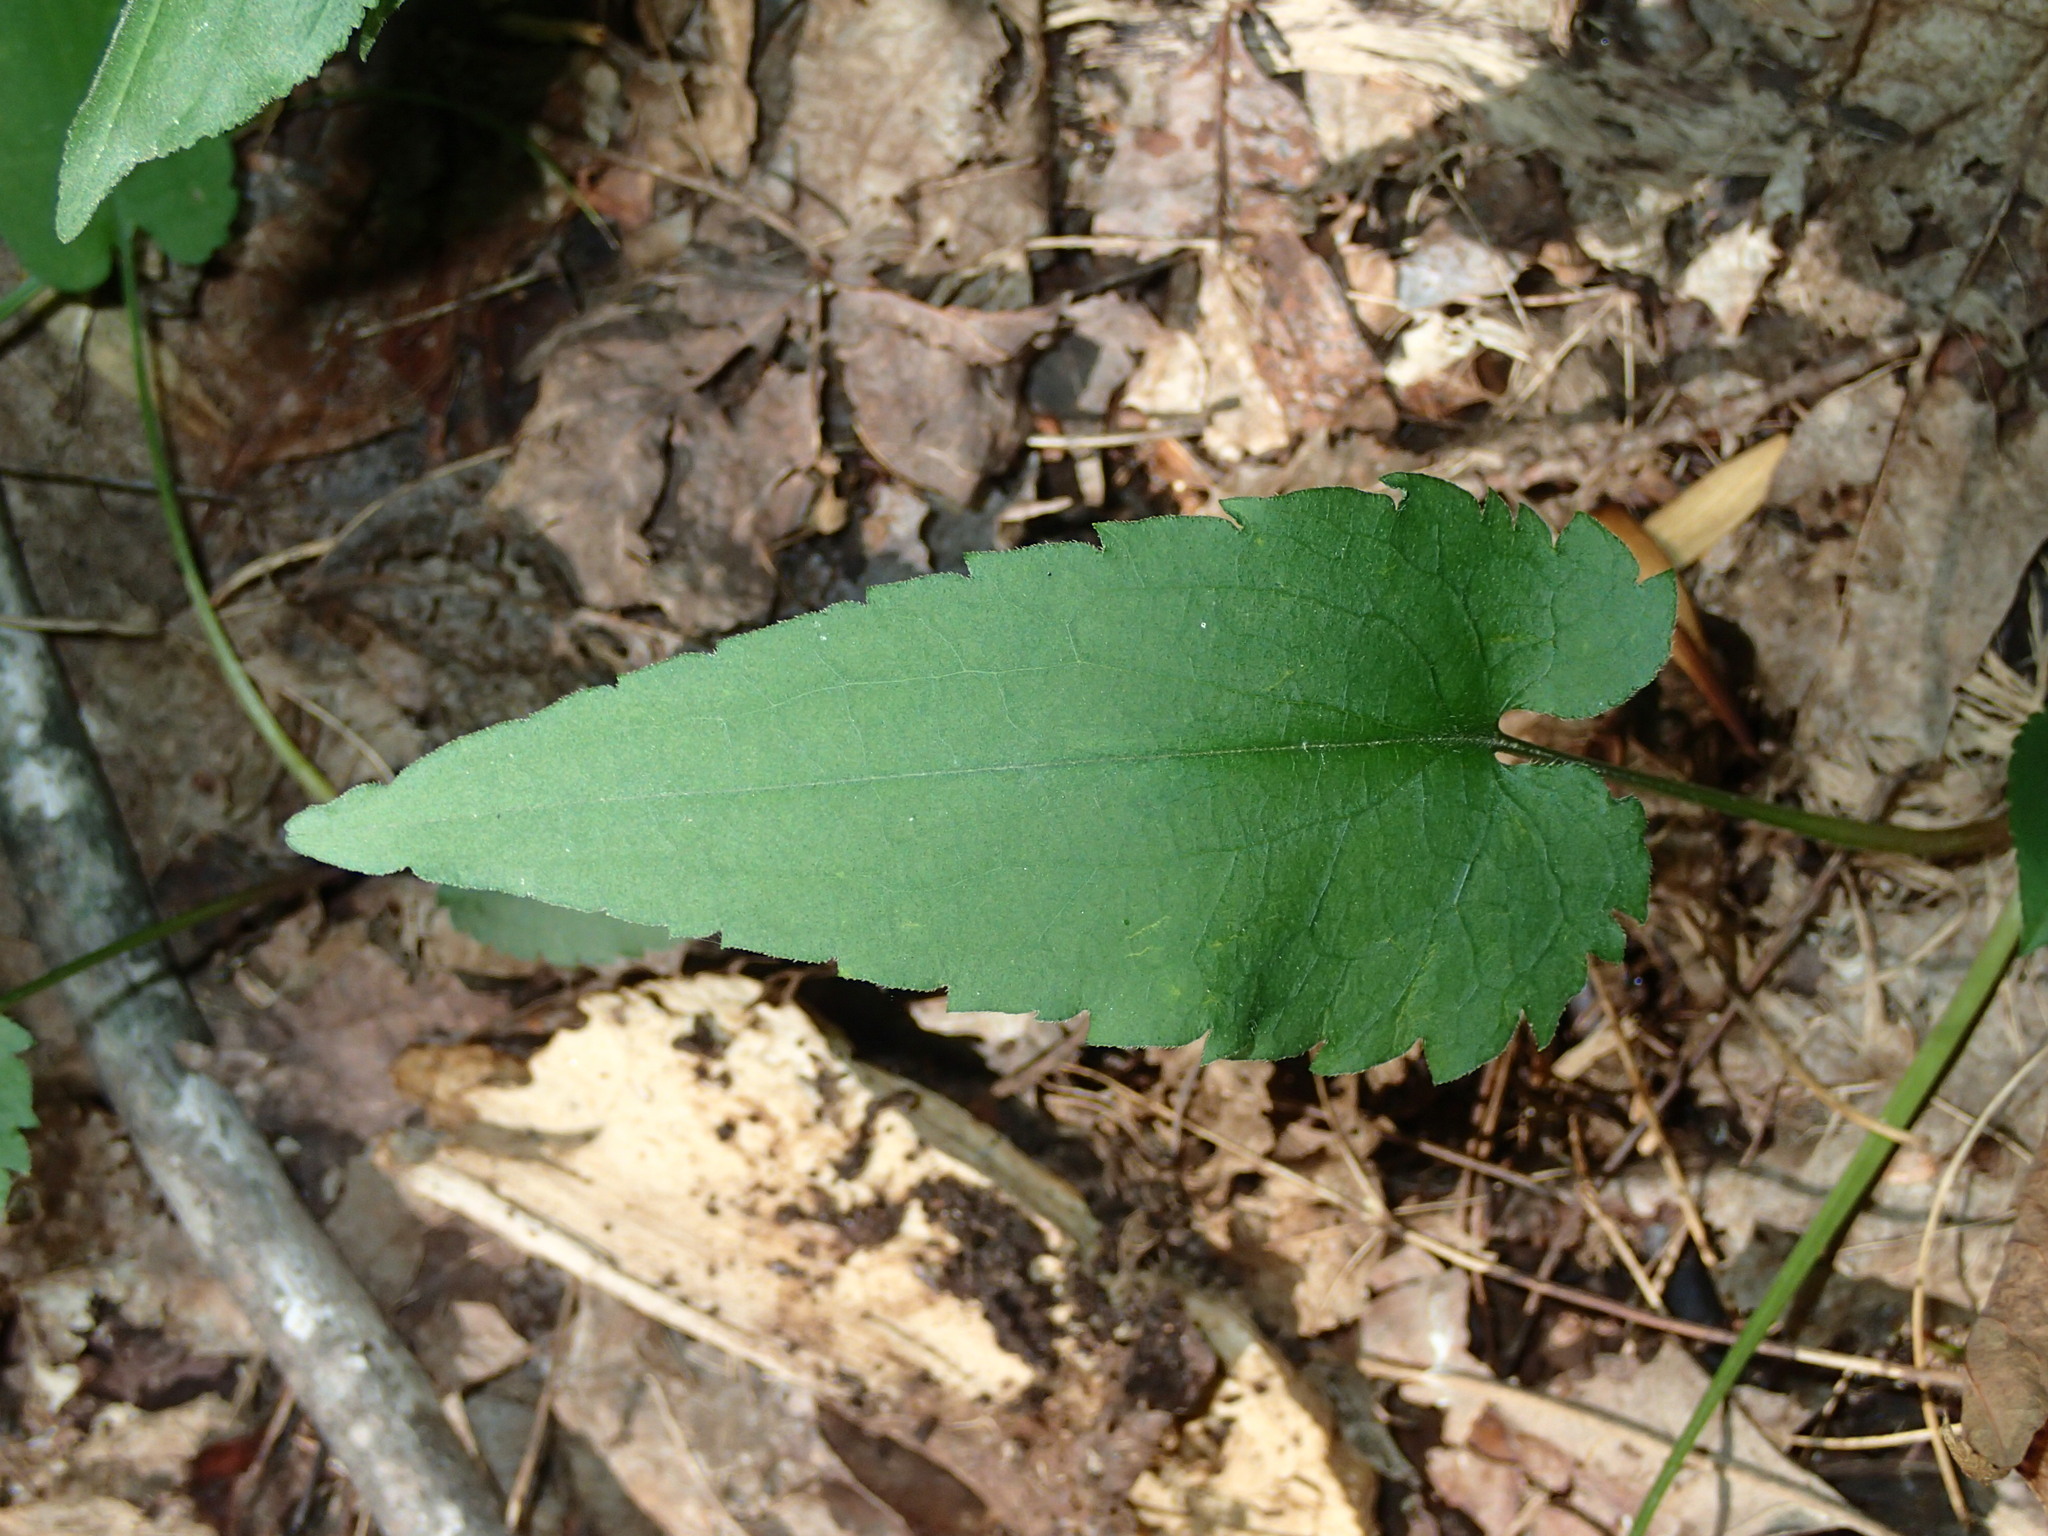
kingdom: Plantae
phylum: Tracheophyta
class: Magnoliopsida
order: Asterales
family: Asteraceae
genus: Symphyotrichum
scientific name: Symphyotrichum cordifolium
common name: Beeweed
